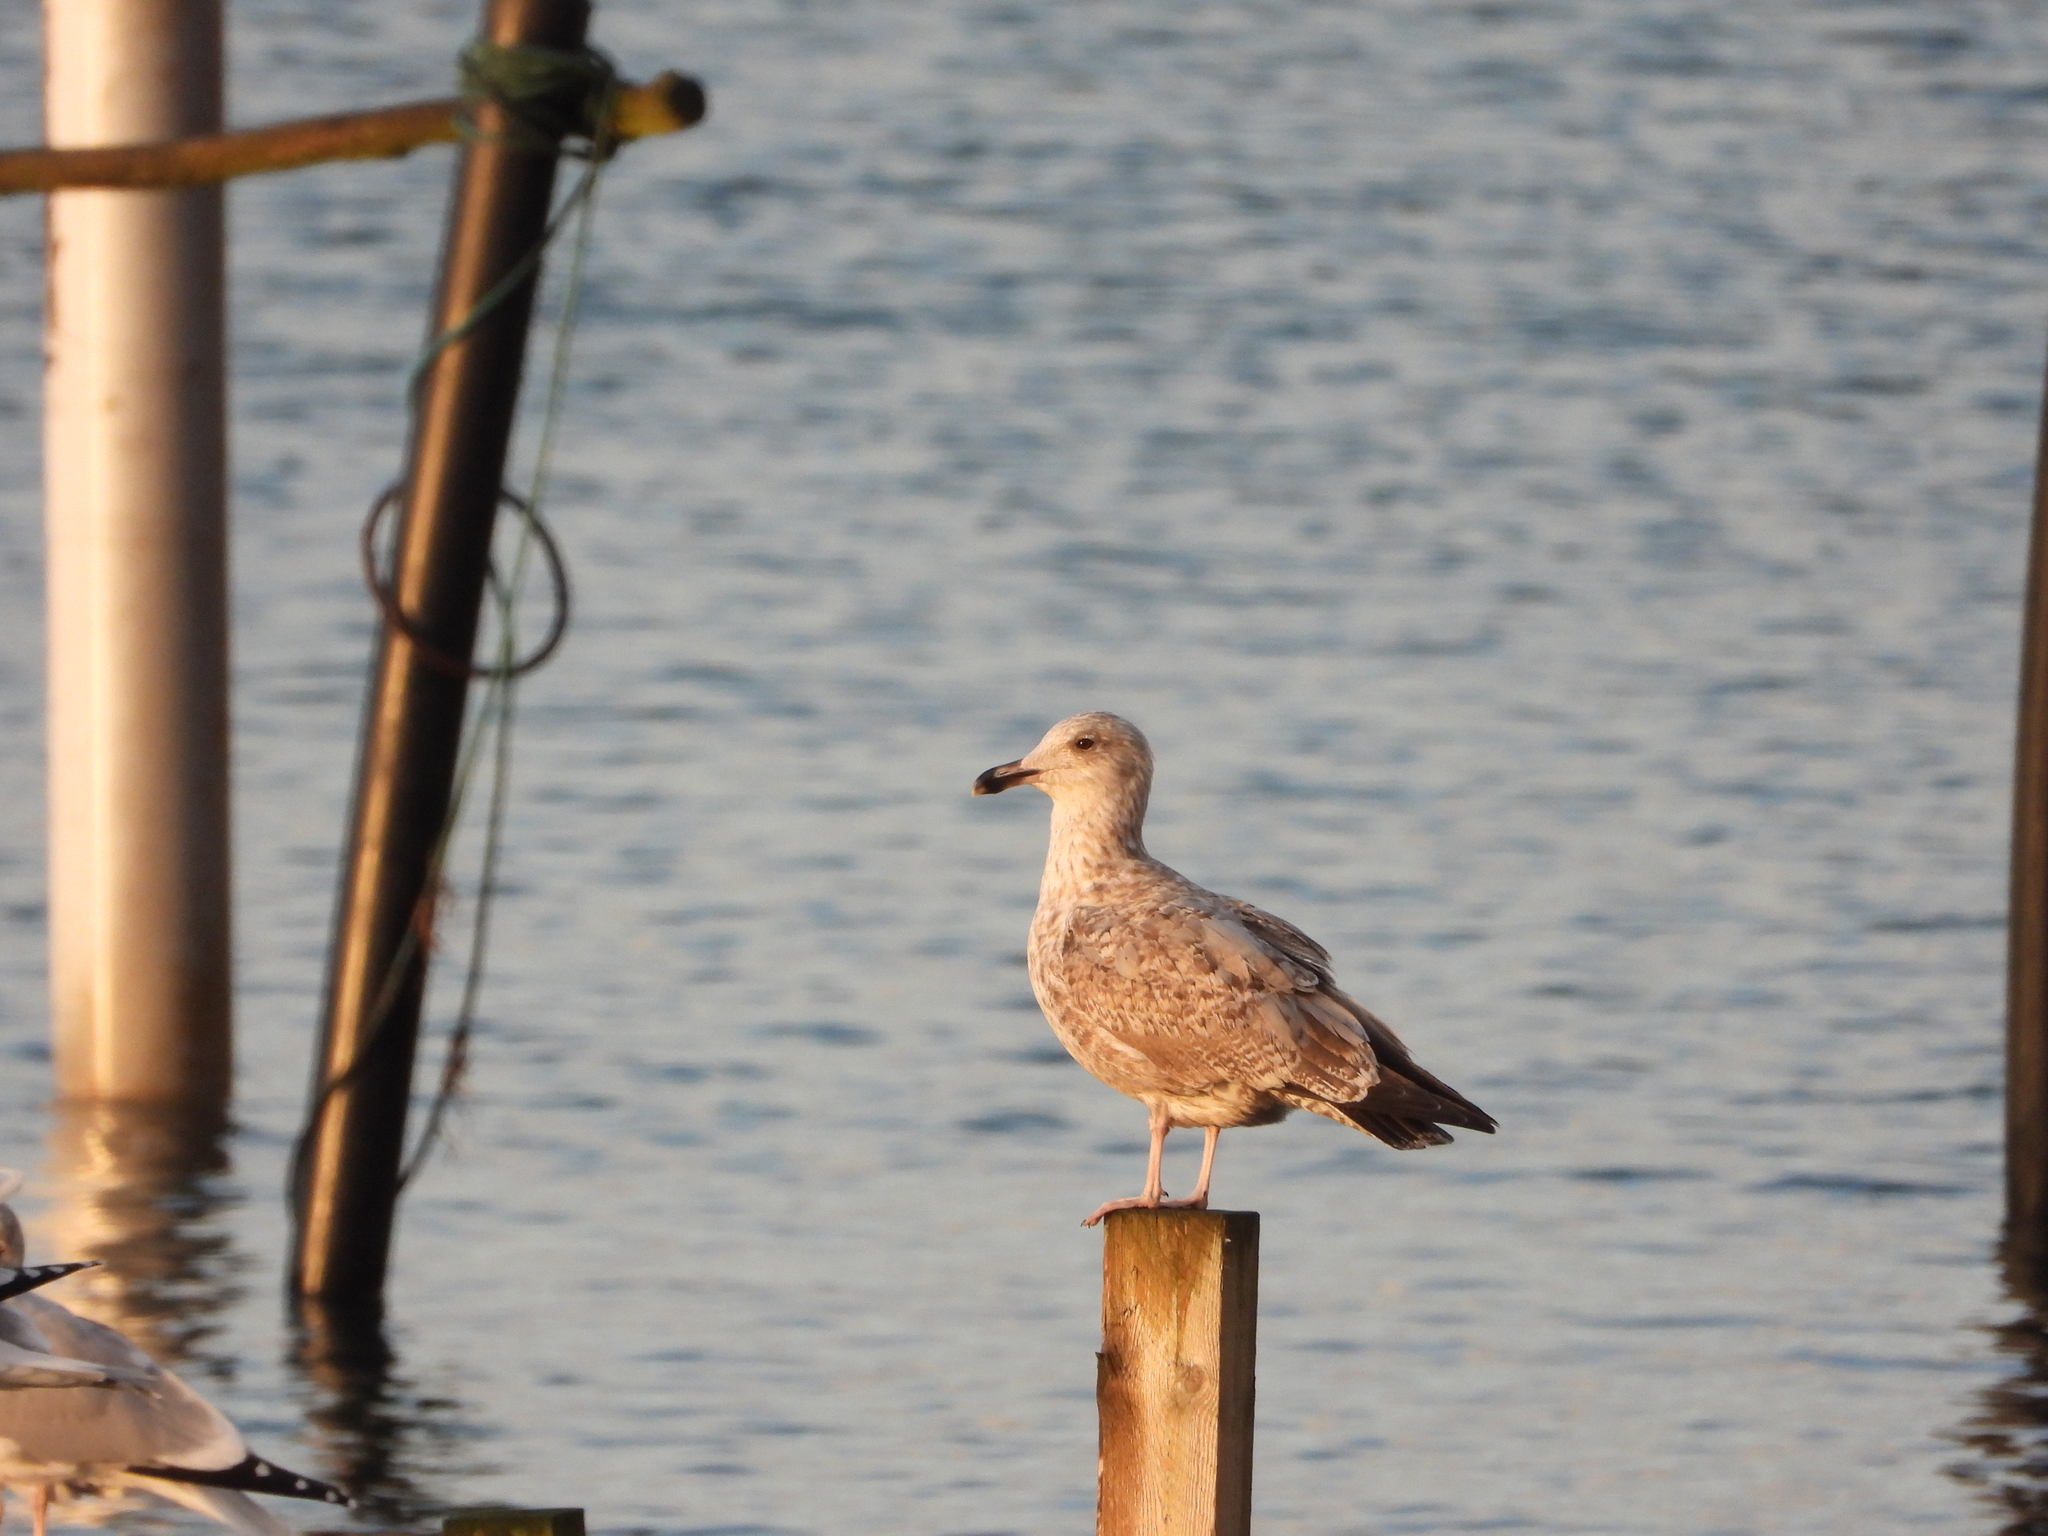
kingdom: Animalia
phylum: Chordata
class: Aves
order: Charadriiformes
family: Laridae
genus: Larus
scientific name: Larus argentatus
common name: Herring gull
